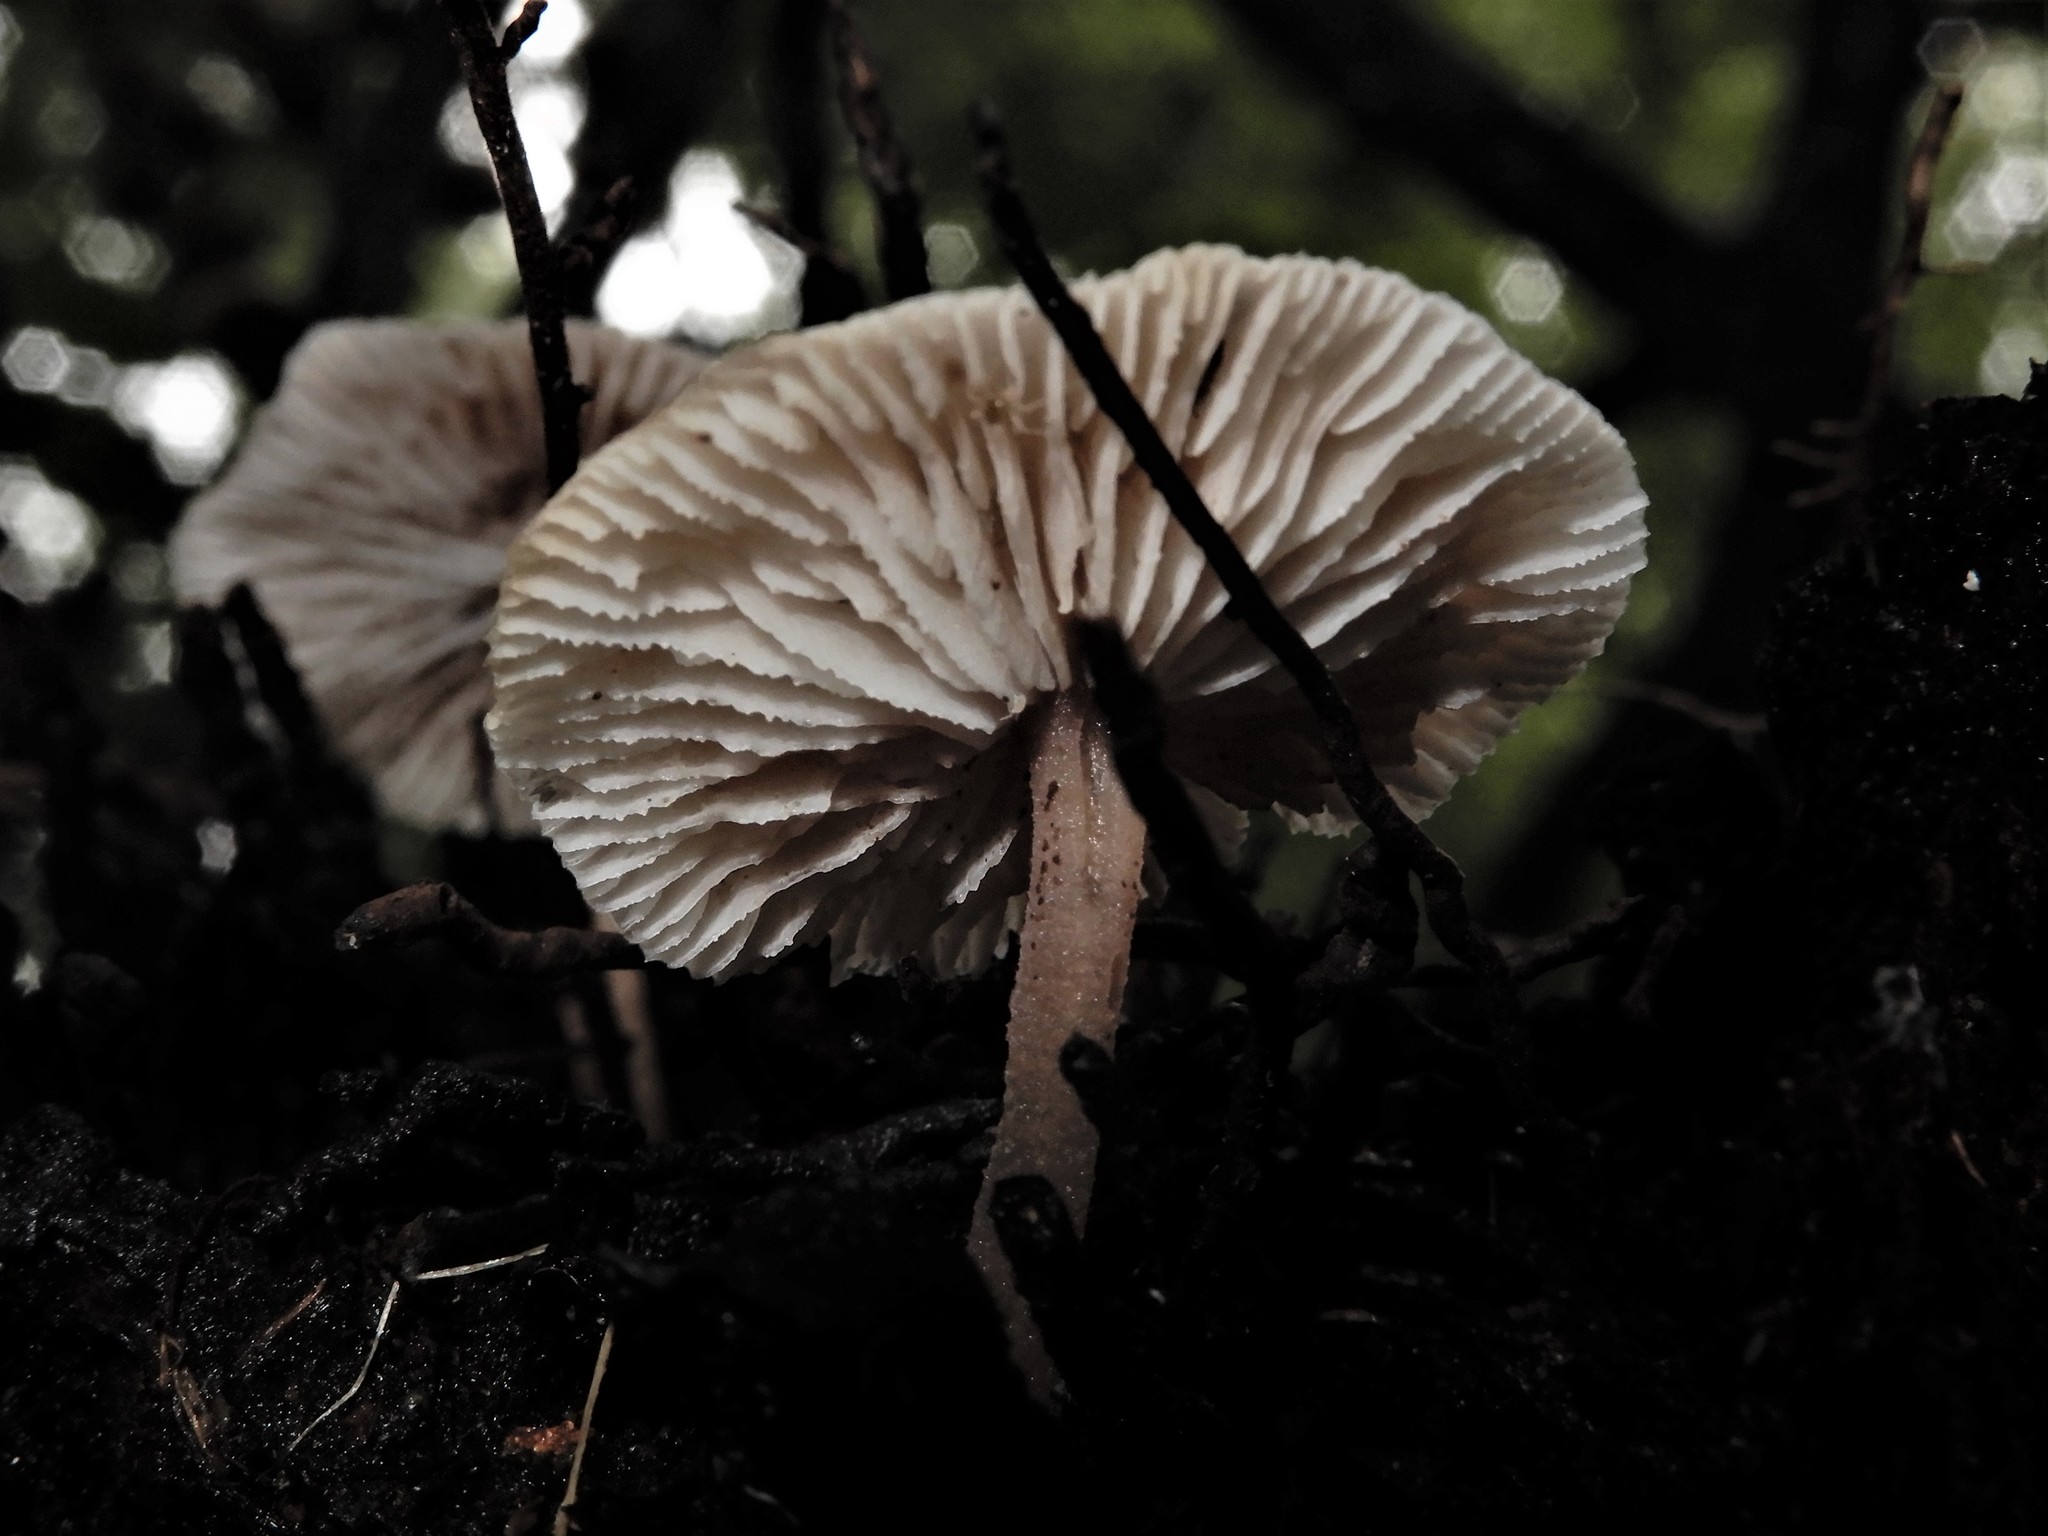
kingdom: Fungi
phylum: Basidiomycota
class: Agaricomycetes
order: Agaricales
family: Omphalotaceae
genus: Rhodocollybia
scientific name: Rhodocollybia
